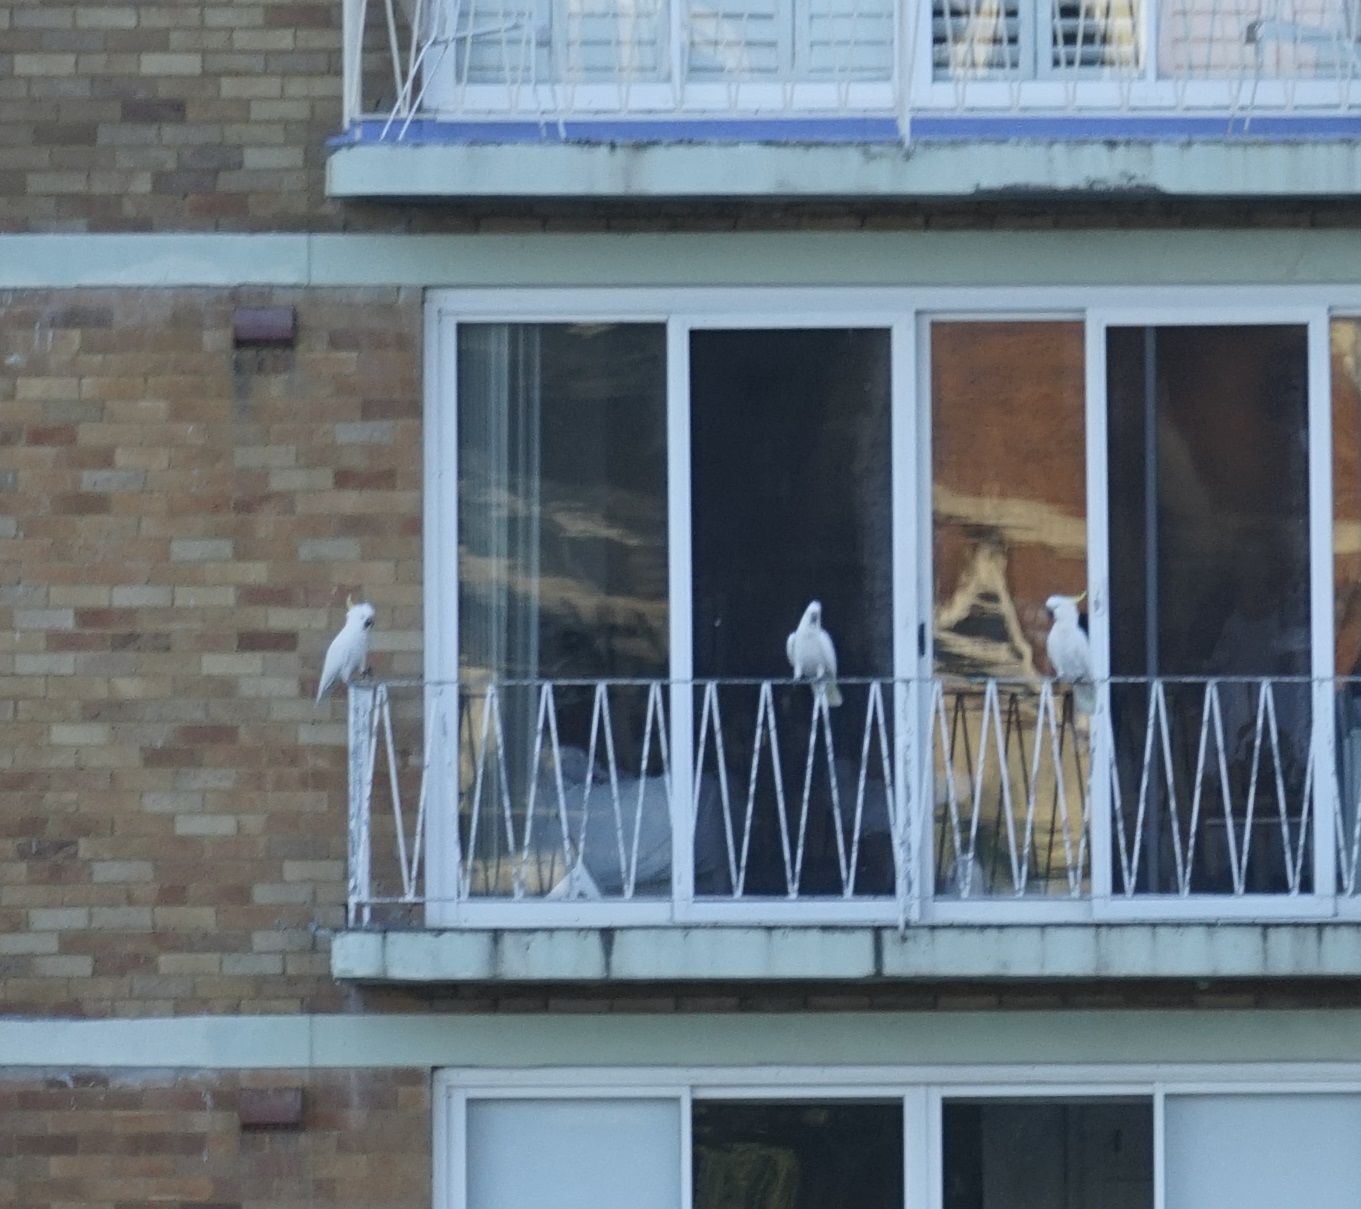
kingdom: Animalia
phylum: Chordata
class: Aves
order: Psittaciformes
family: Psittacidae
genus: Cacatua
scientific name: Cacatua galerita
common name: Sulphur-crested cockatoo
